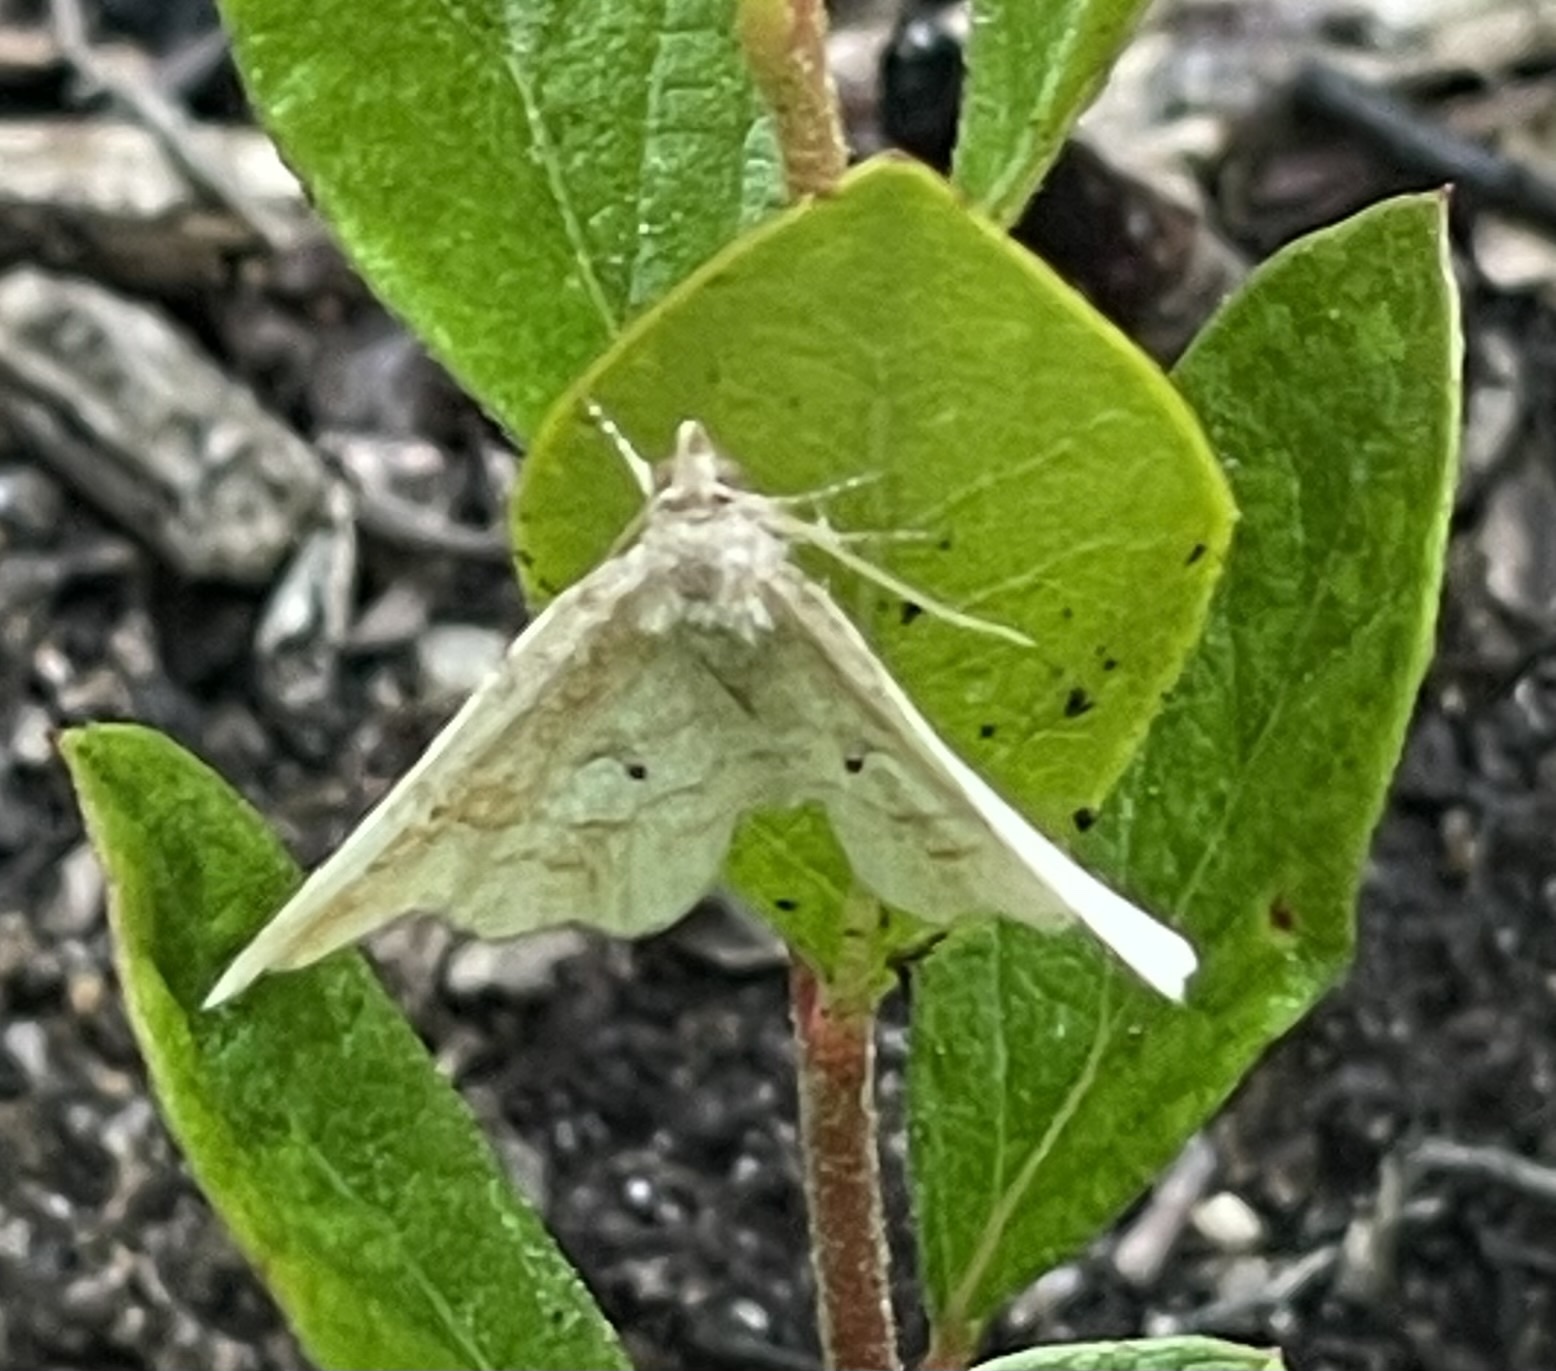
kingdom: Animalia
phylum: Arthropoda
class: Insecta
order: Lepidoptera
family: Erebidae
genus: Pangrapta
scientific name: Pangrapta decoralis
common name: Decorated owlet
